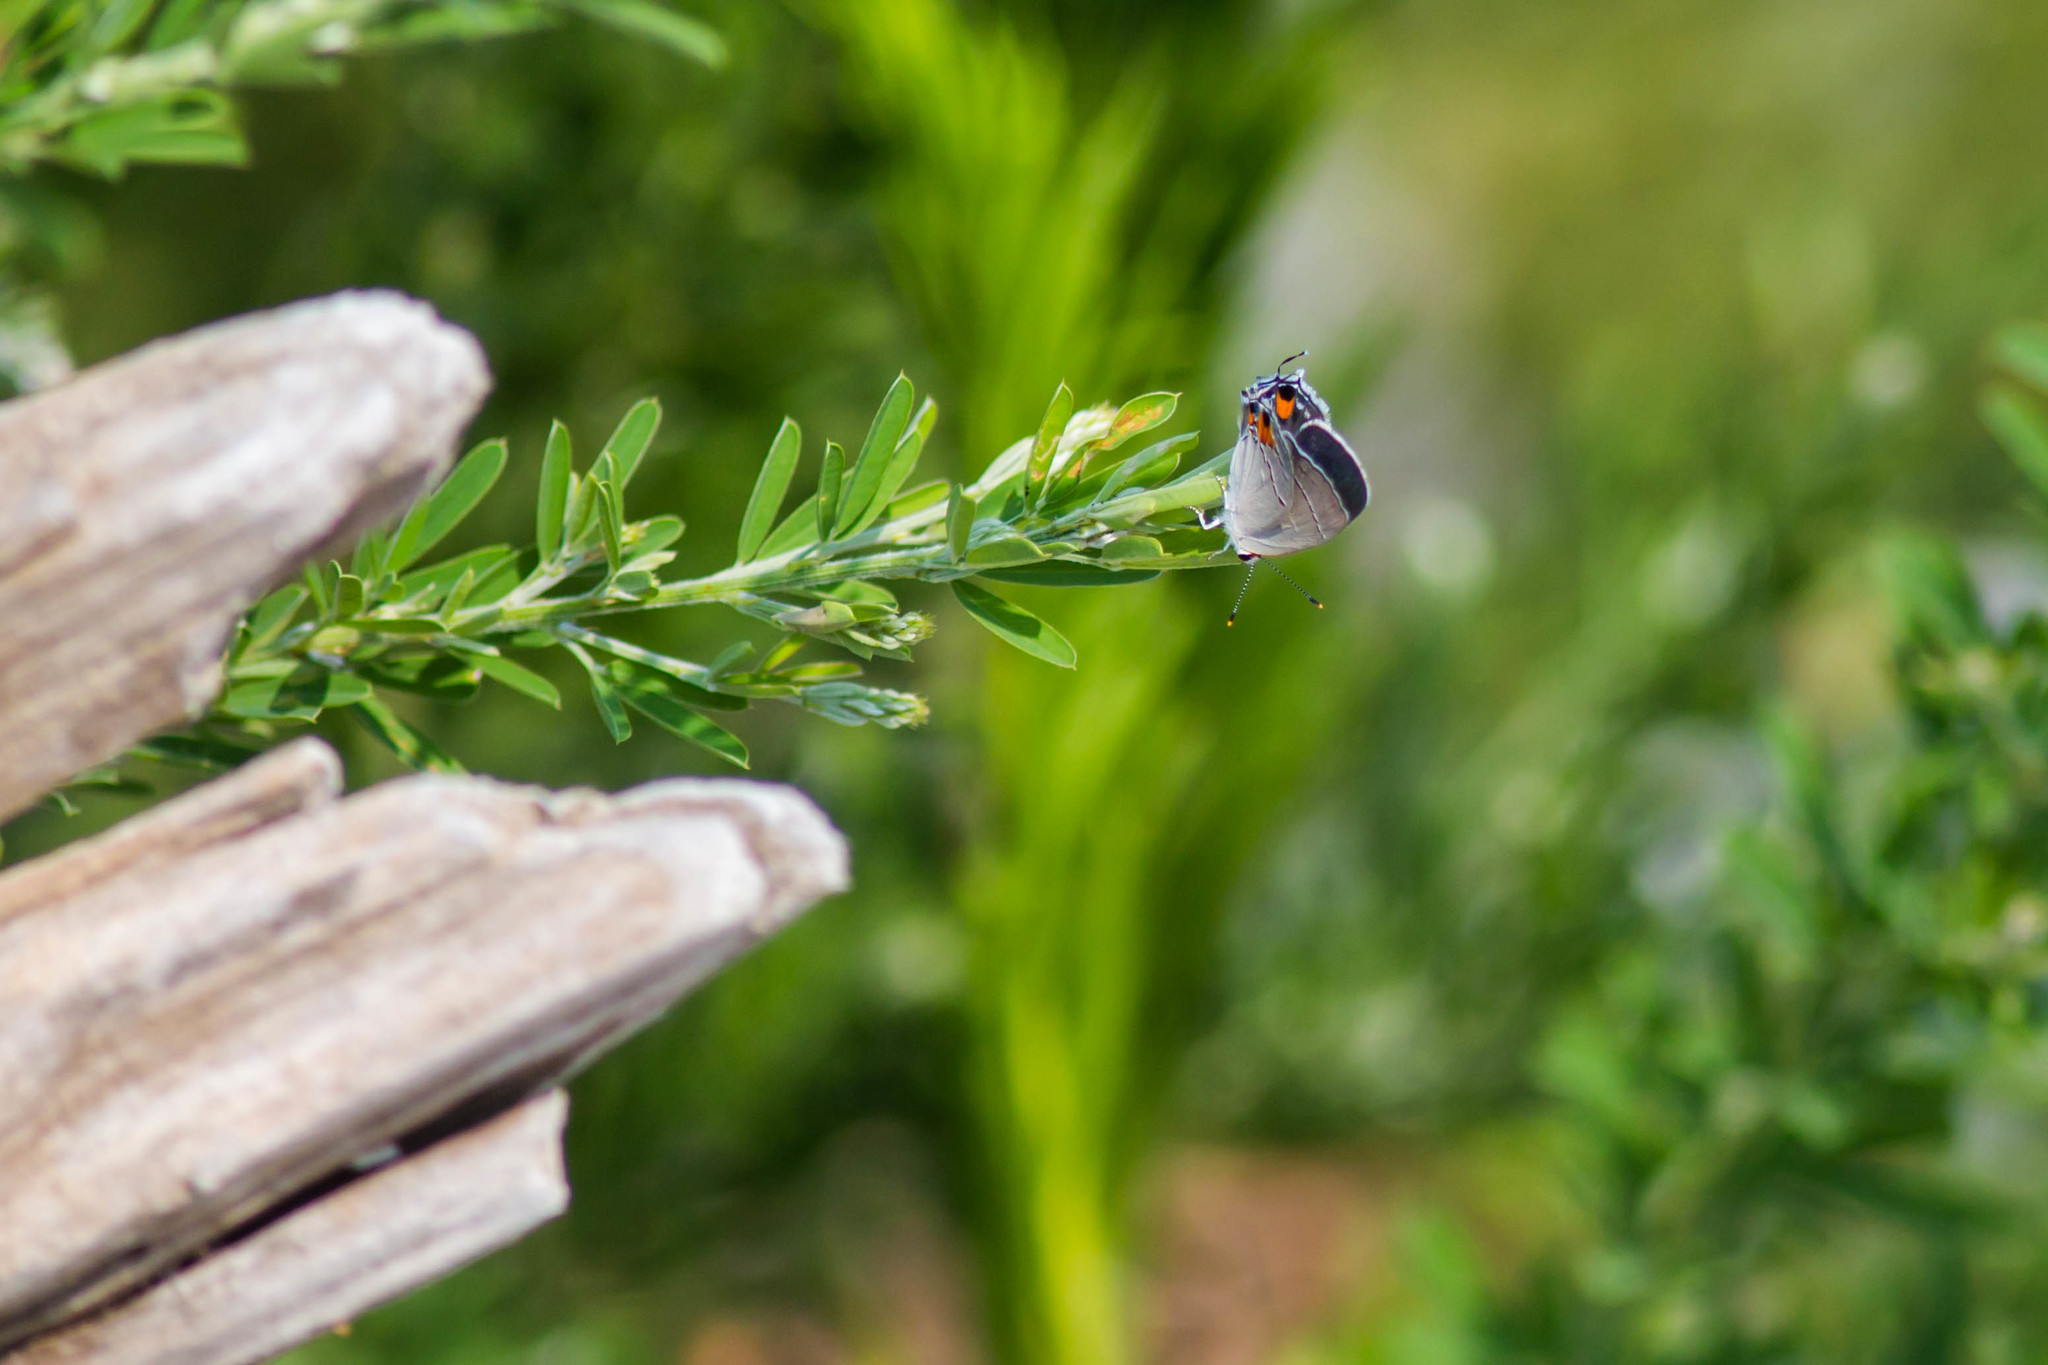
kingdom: Animalia
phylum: Arthropoda
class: Insecta
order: Lepidoptera
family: Lycaenidae
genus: Strymon
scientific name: Strymon melinus
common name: Gray hairstreak
